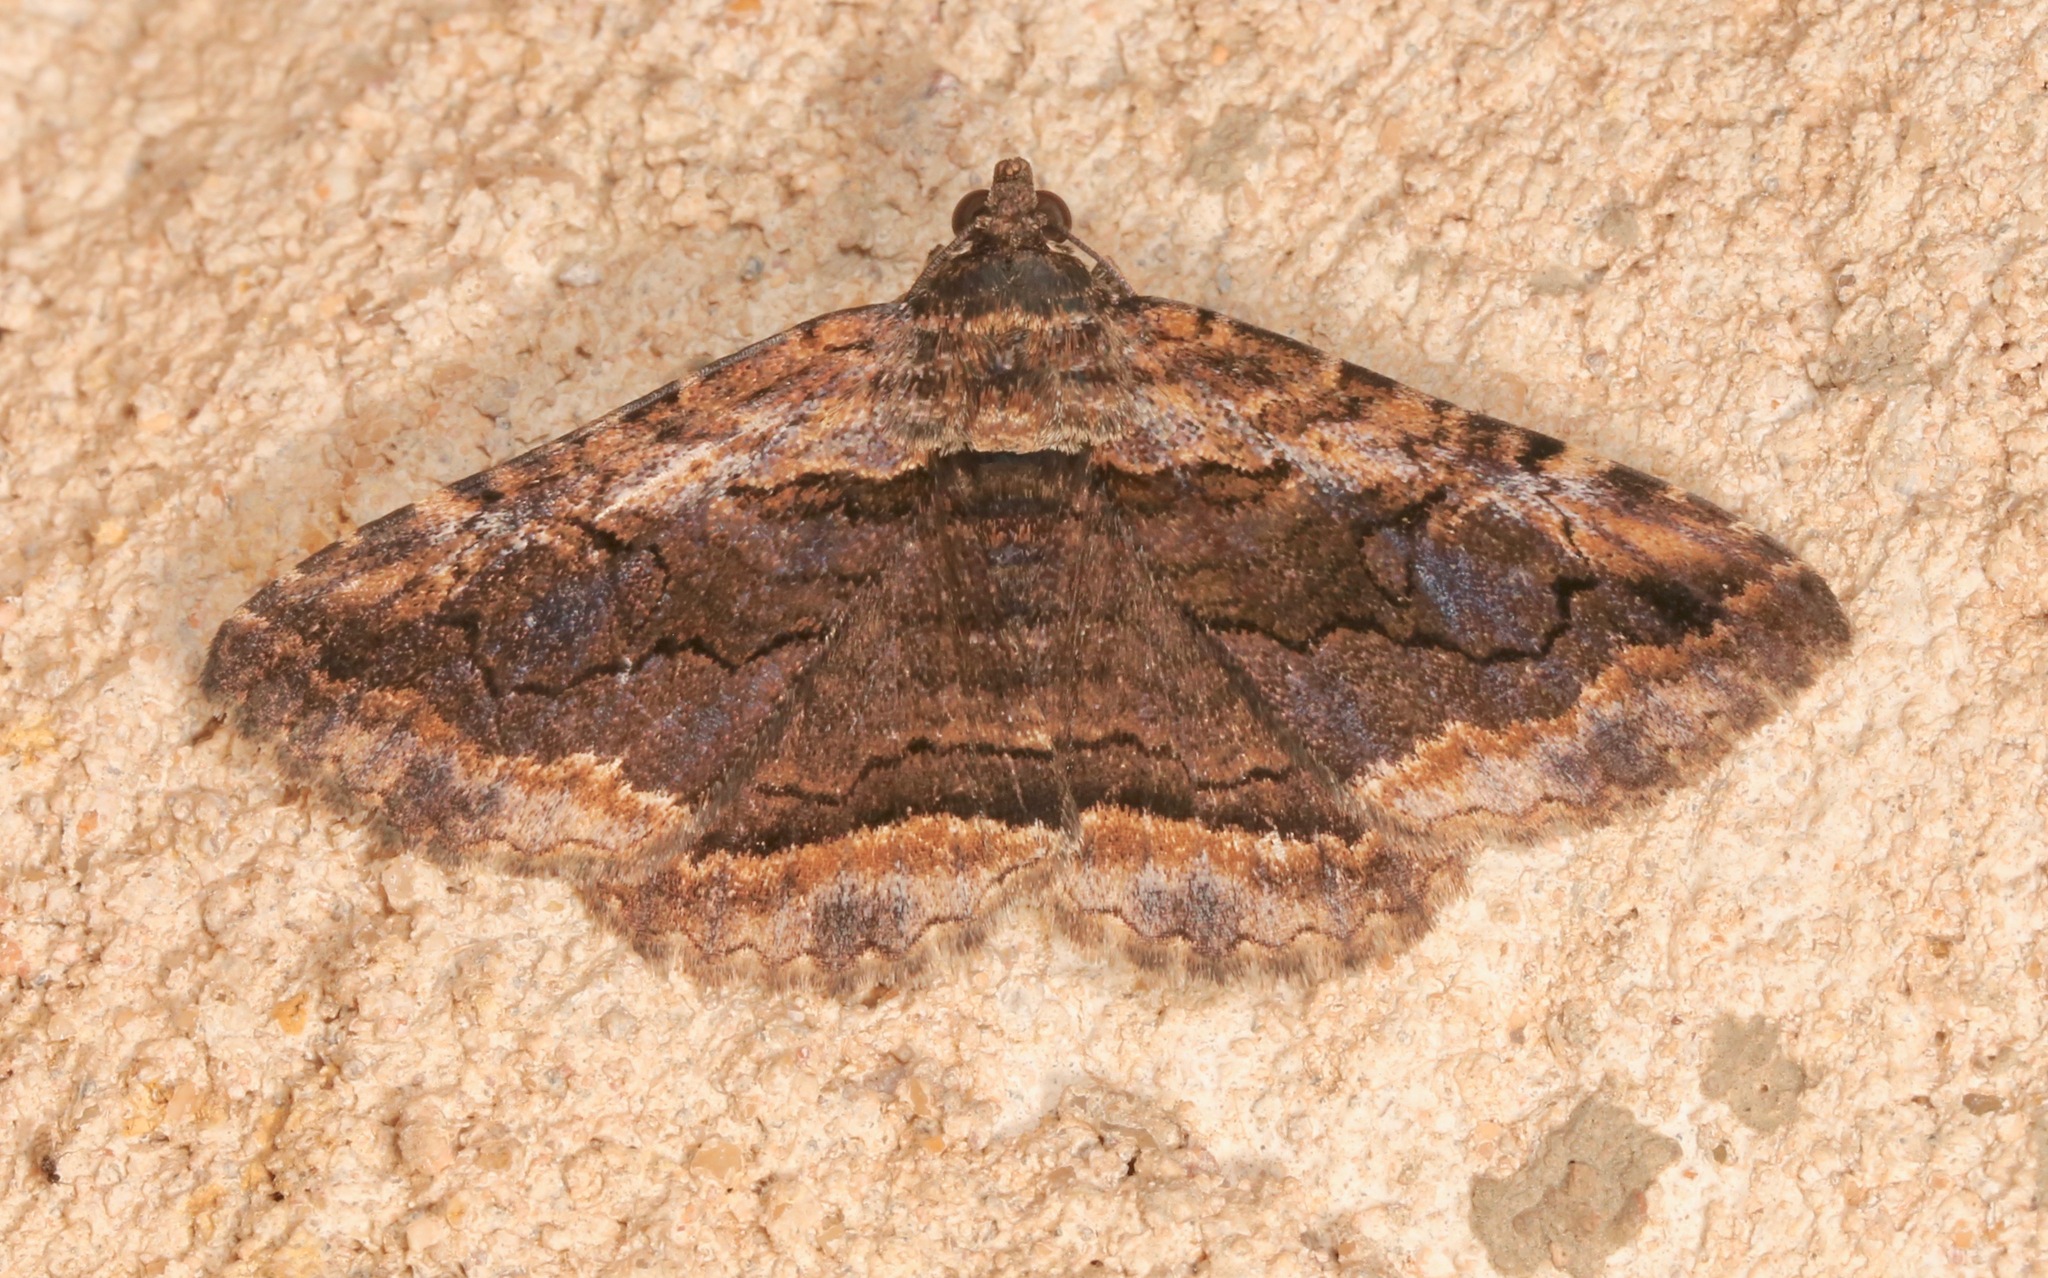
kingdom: Animalia
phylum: Arthropoda
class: Insecta
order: Lepidoptera
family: Erebidae
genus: Zaleops
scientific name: Zaleops umbrina
